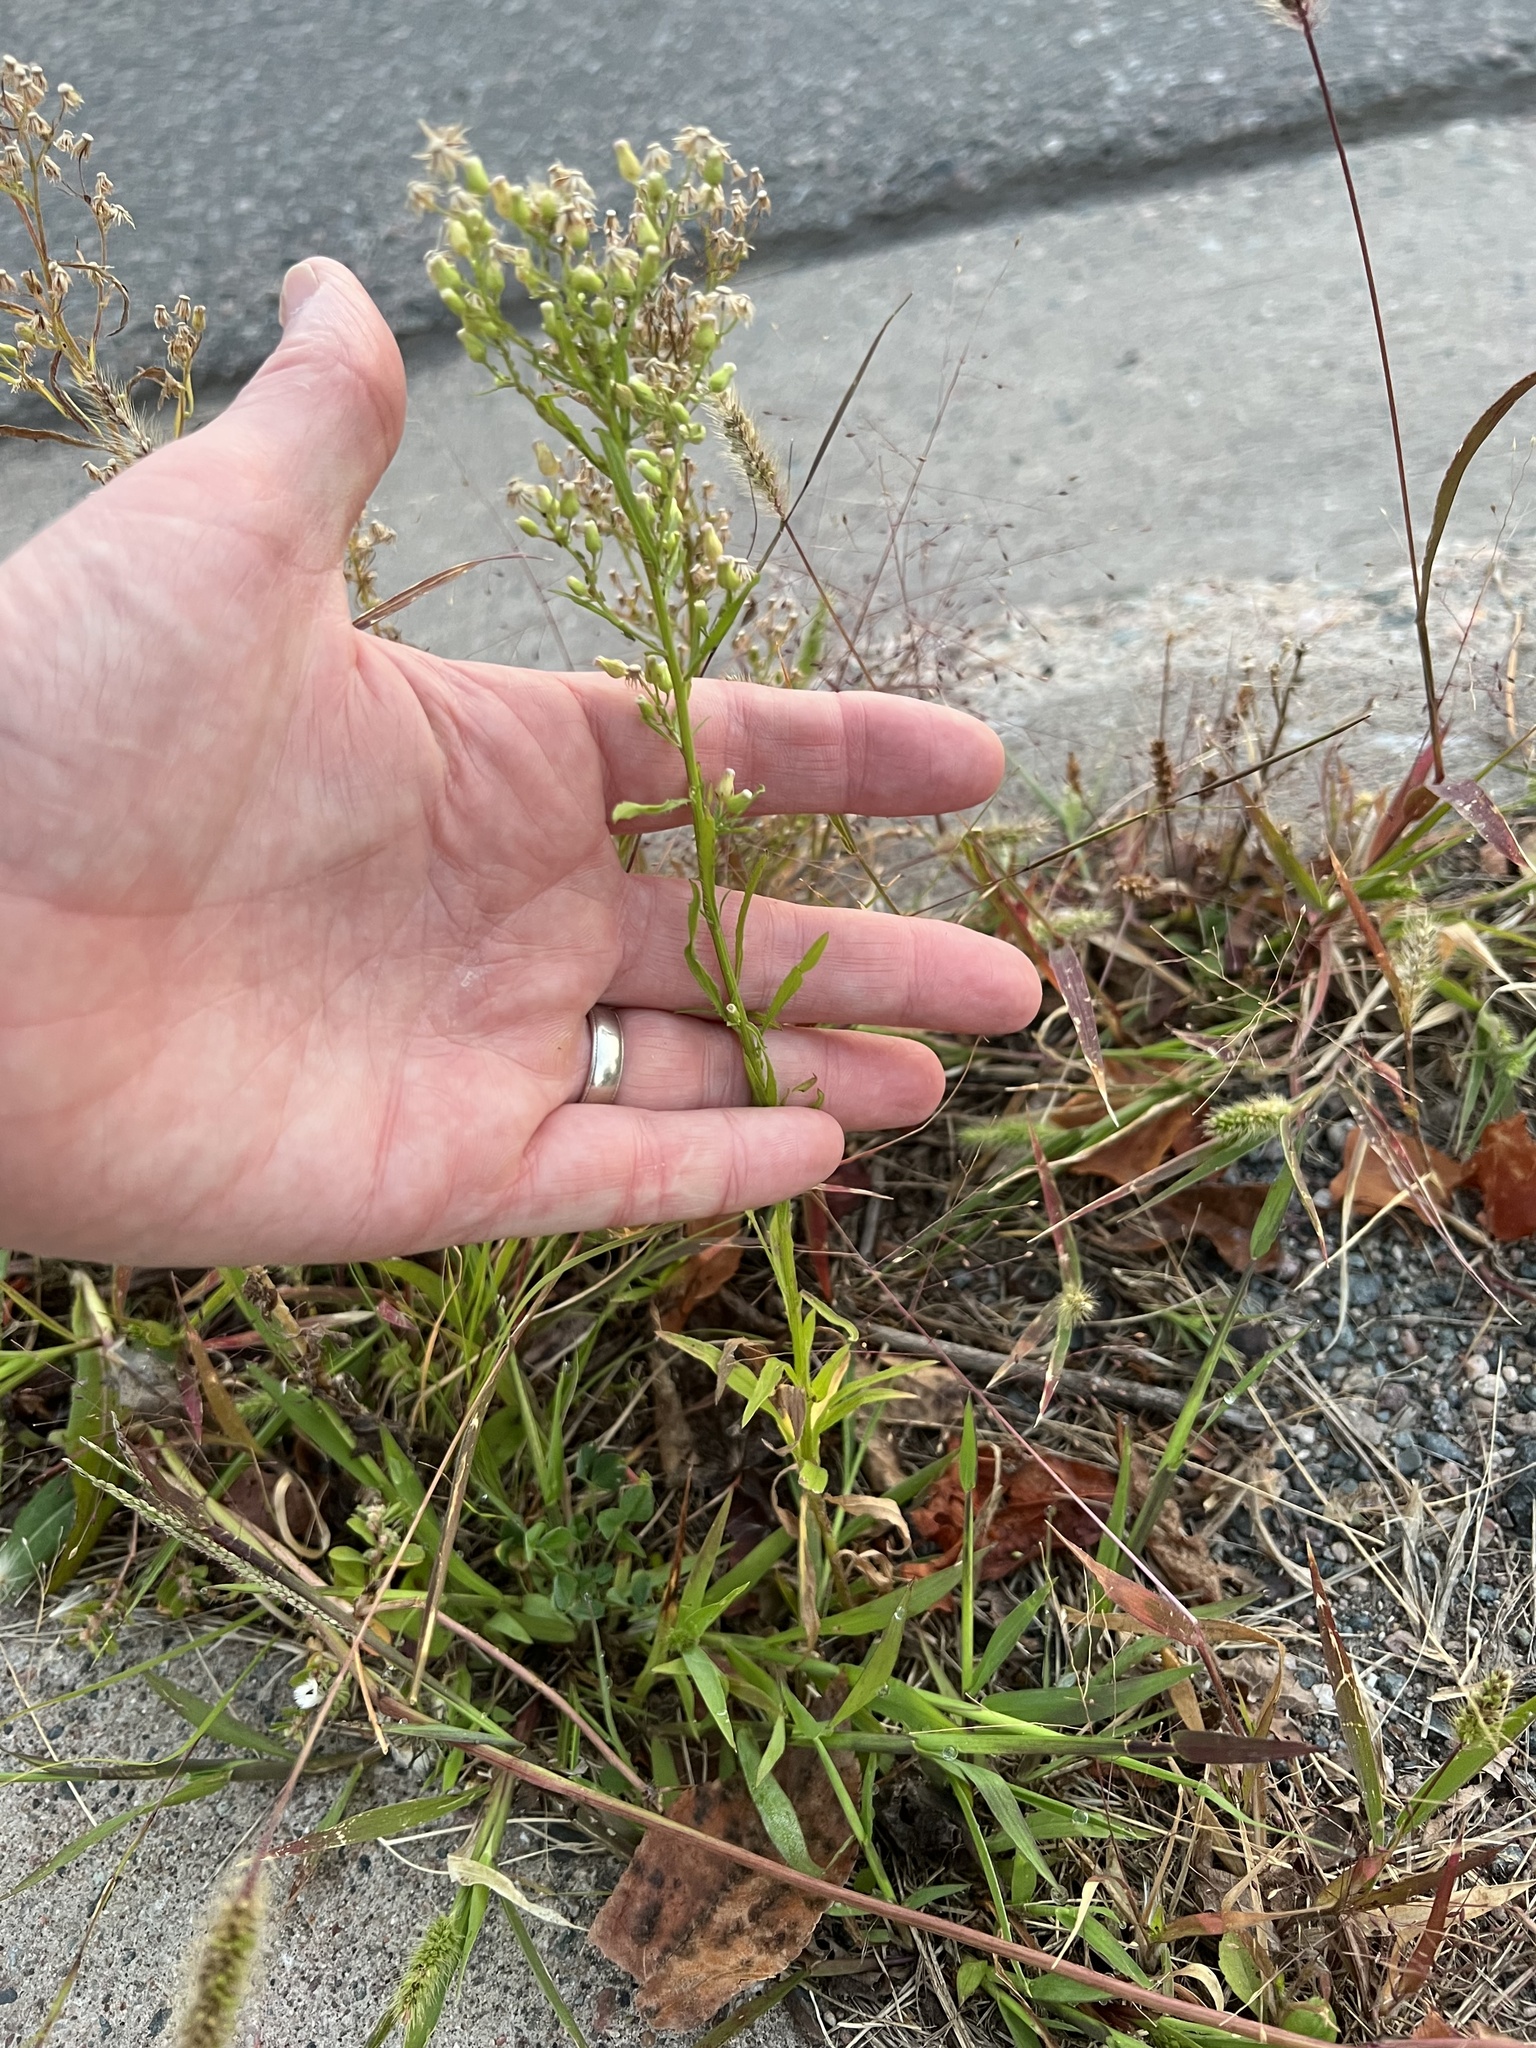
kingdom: Plantae
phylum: Tracheophyta
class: Magnoliopsida
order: Asterales
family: Asteraceae
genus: Erigeron
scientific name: Erigeron canadensis
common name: Canadian fleabane
